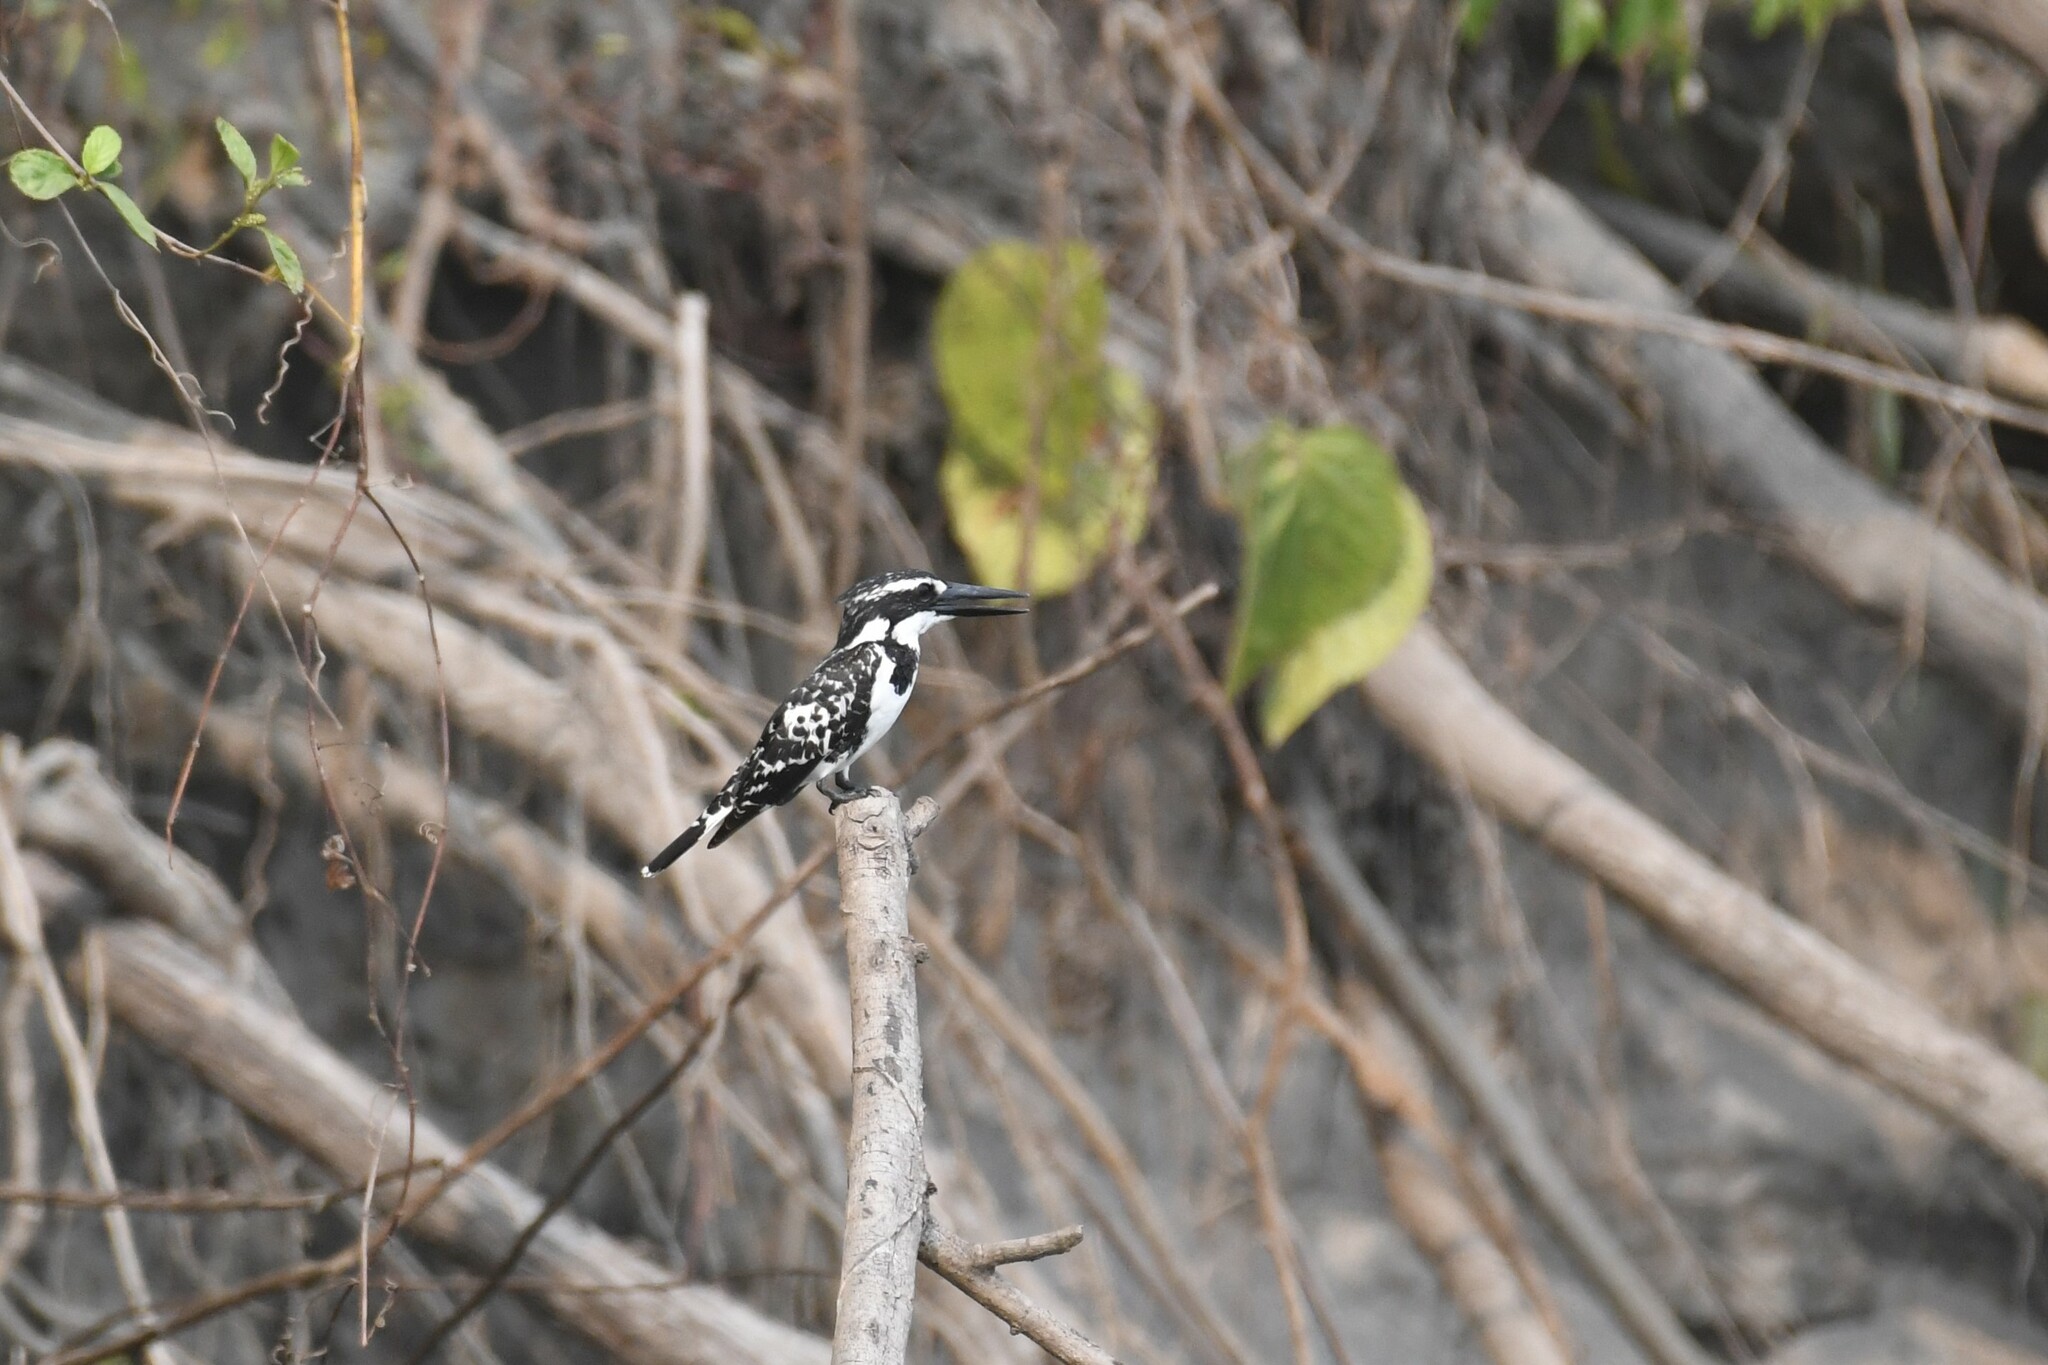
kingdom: Animalia
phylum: Chordata
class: Aves
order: Coraciiformes
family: Alcedinidae
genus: Ceryle
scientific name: Ceryle rudis
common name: Pied kingfisher
